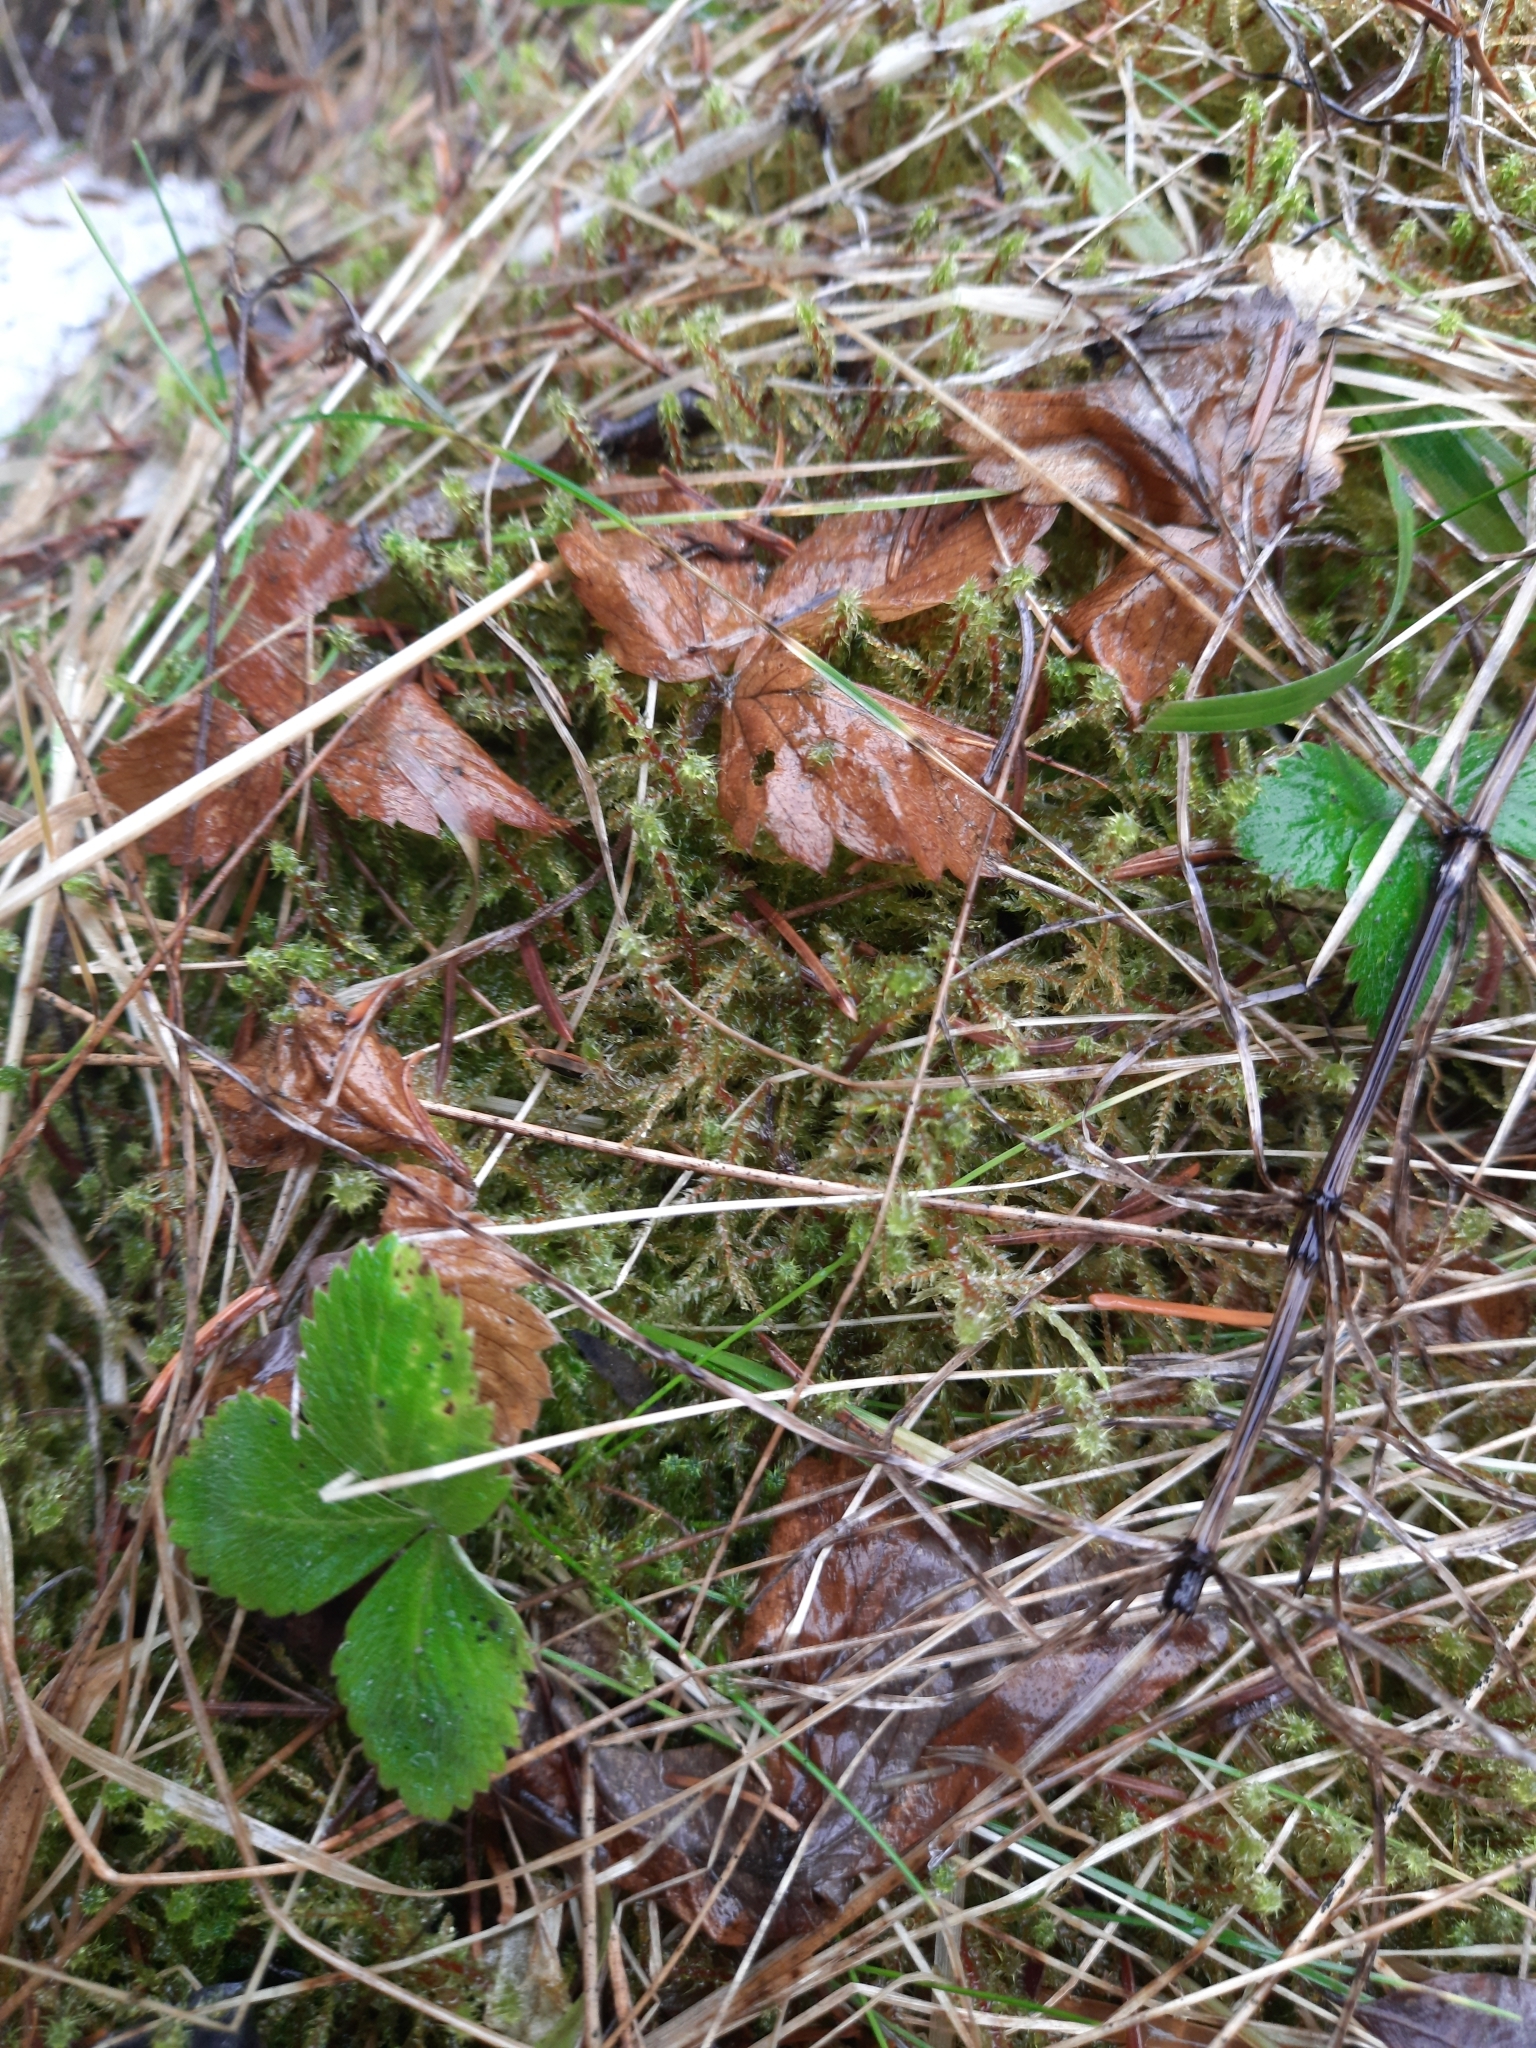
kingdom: Plantae
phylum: Tracheophyta
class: Magnoliopsida
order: Rosales
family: Rosaceae
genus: Fragaria
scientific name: Fragaria vesca
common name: Wild strawberry
